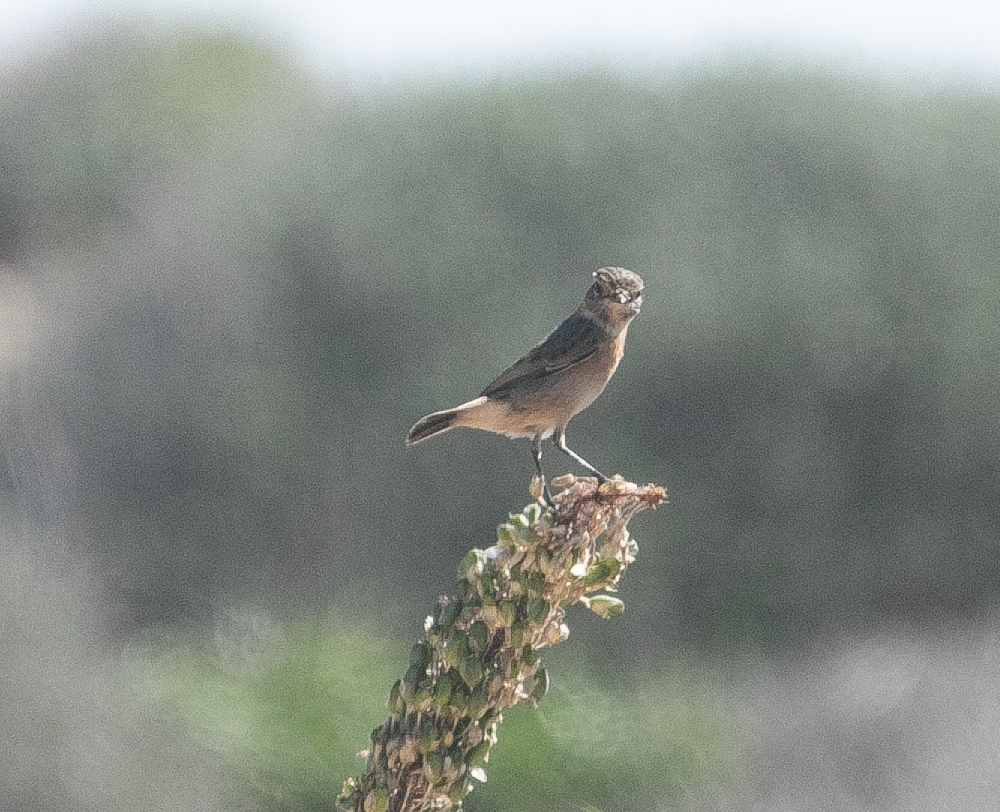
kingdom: Animalia
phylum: Chordata
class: Aves
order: Passeriformes
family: Muscicapidae
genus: Saxicola
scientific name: Saxicola rubicola
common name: European stonechat
